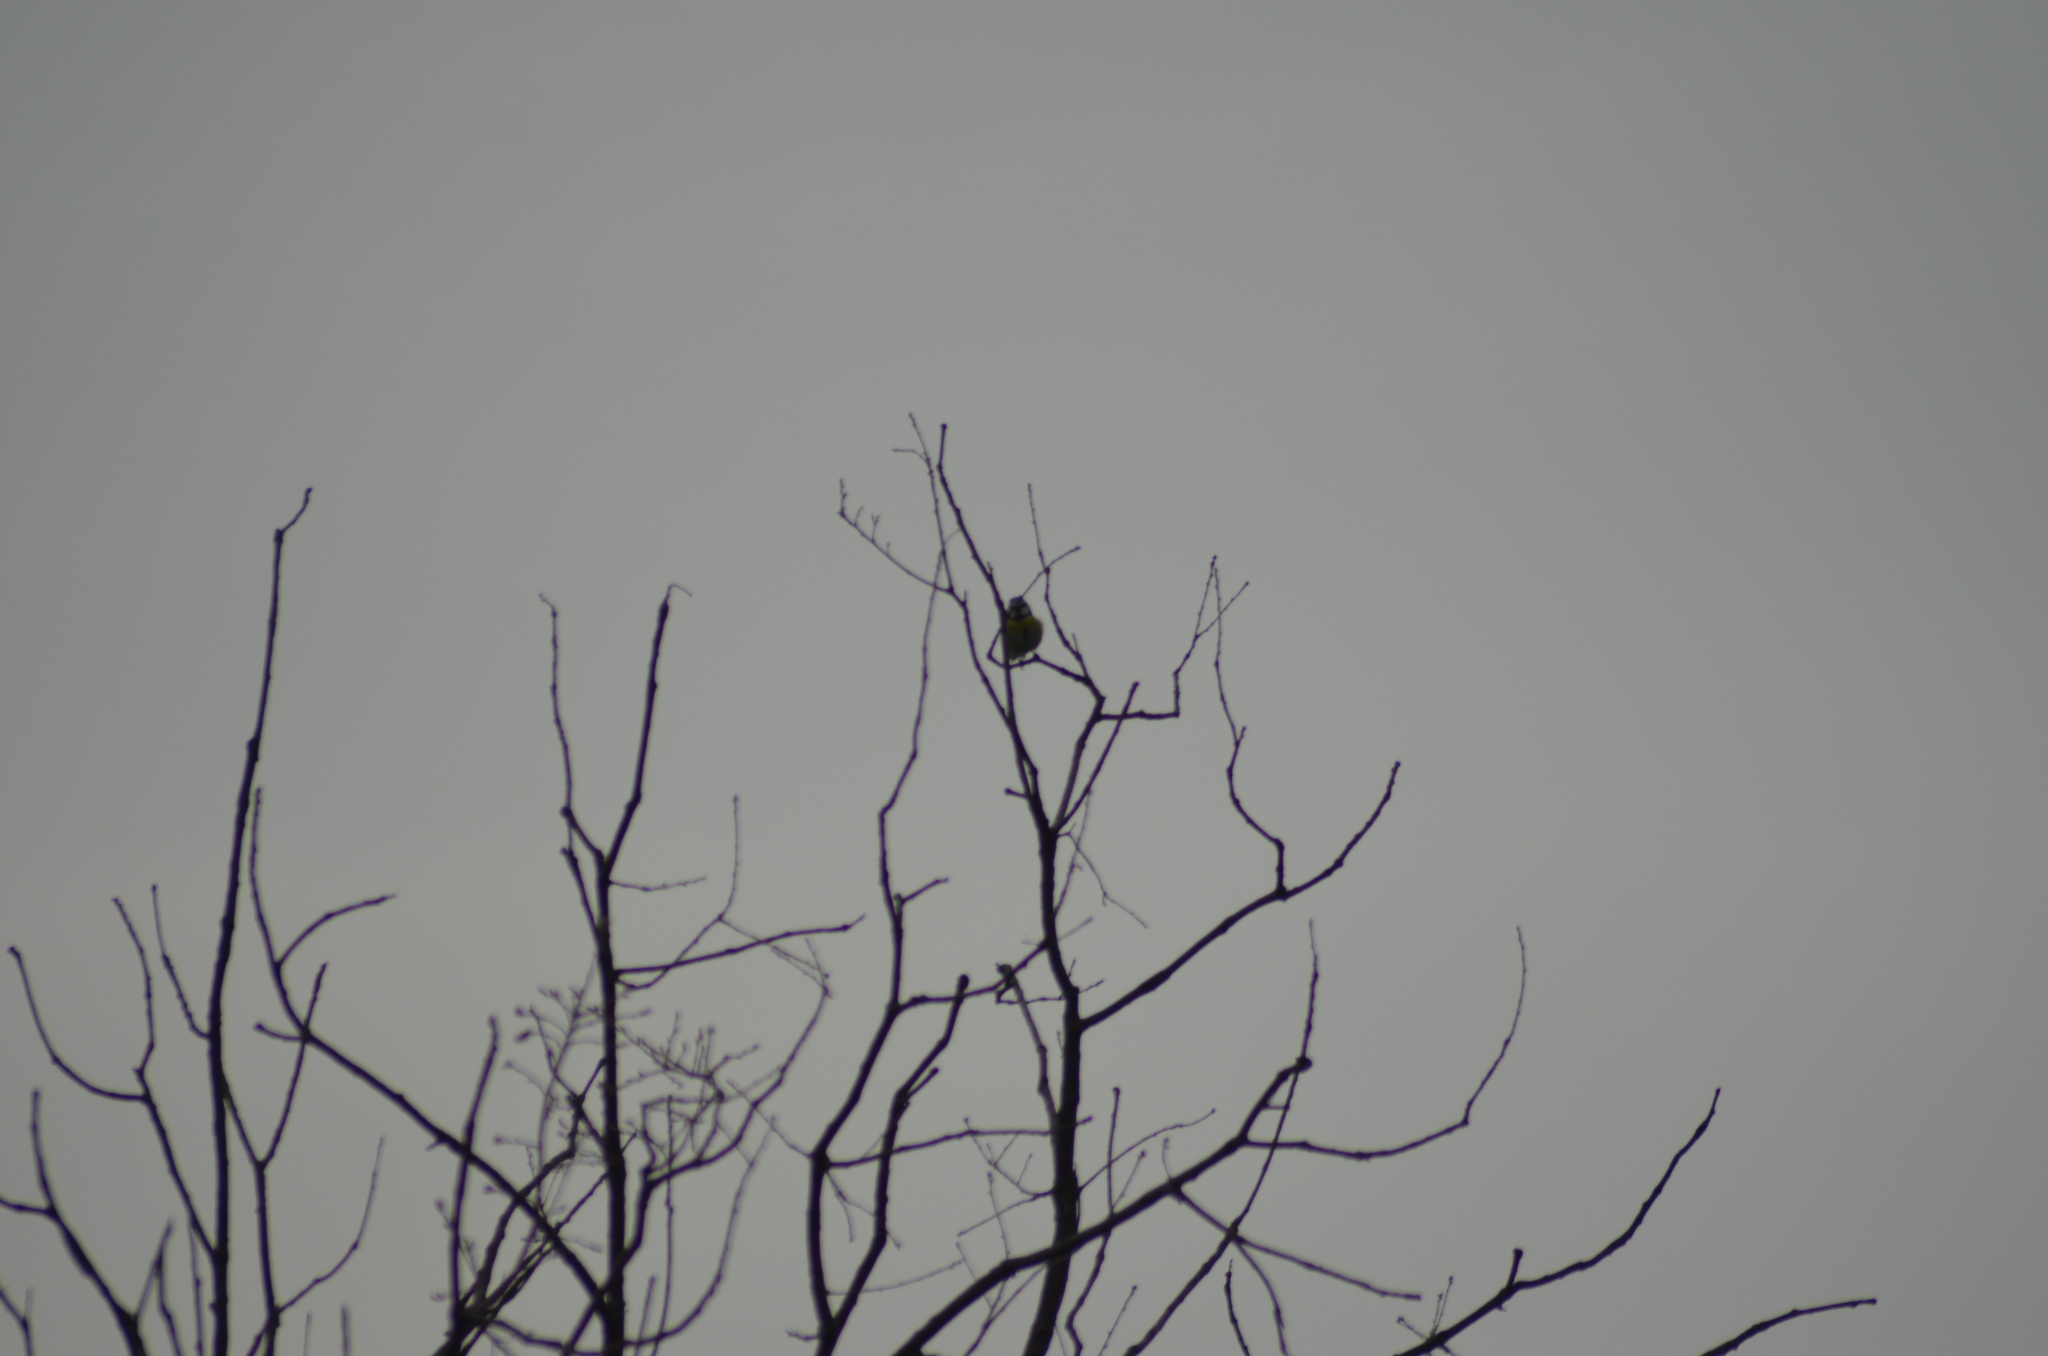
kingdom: Animalia
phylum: Chordata
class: Aves
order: Passeriformes
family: Paridae
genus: Cyanistes
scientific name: Cyanistes caeruleus
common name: Eurasian blue tit
